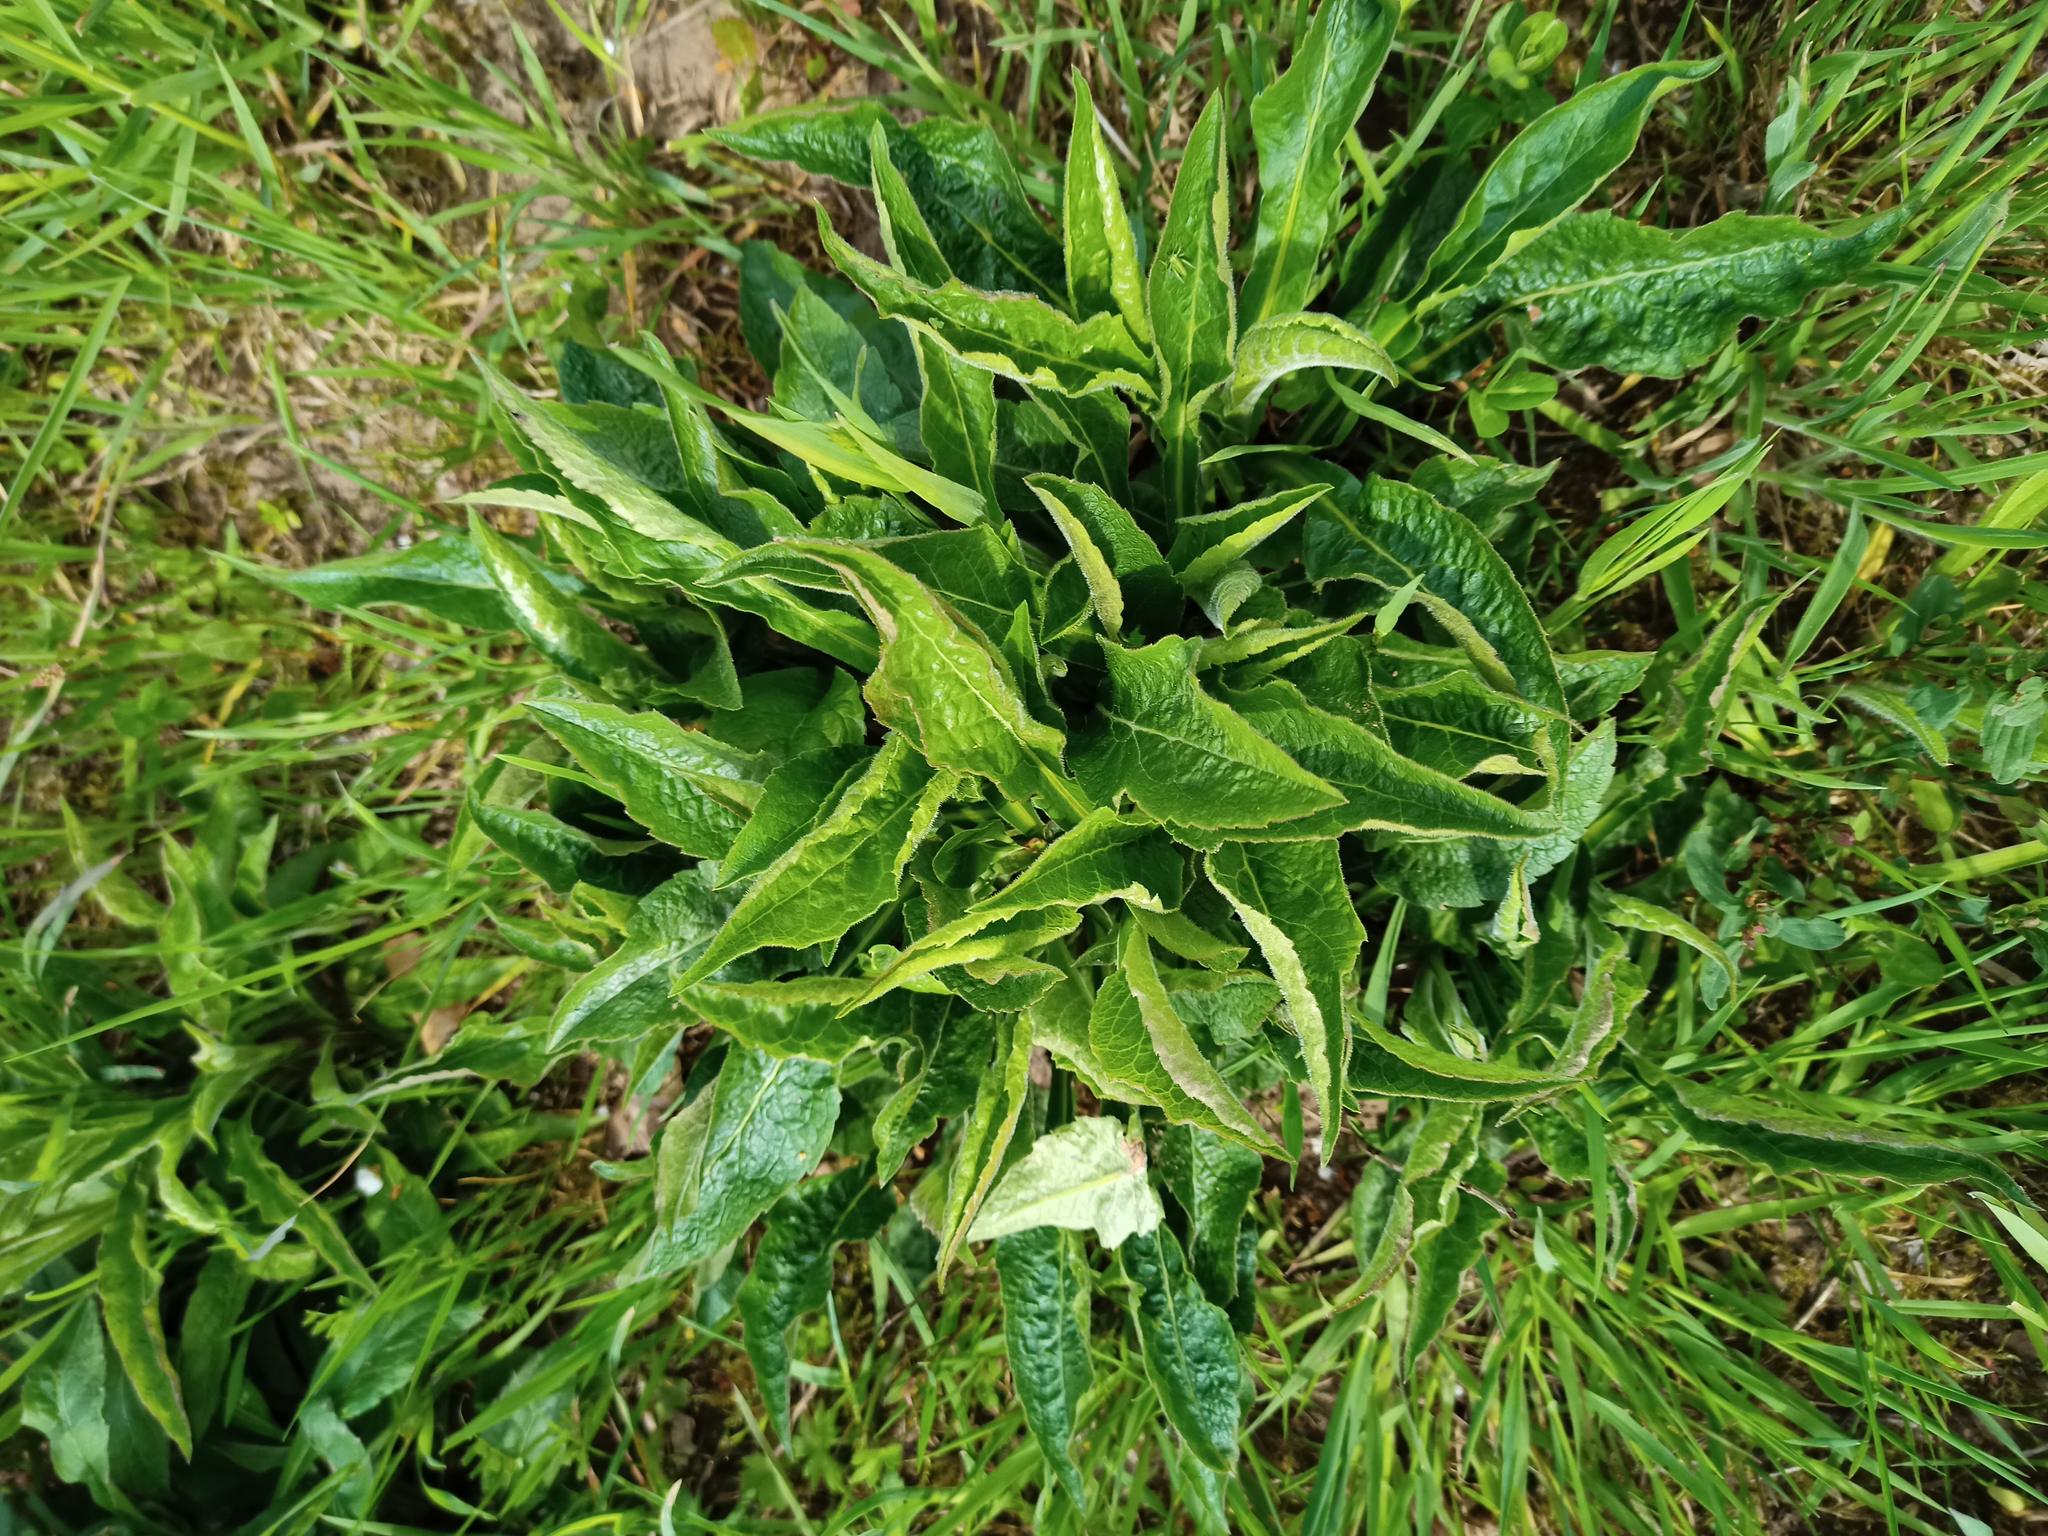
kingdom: Plantae
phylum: Tracheophyta
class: Magnoliopsida
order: Brassicales
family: Brassicaceae
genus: Bunias
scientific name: Bunias orientalis
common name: Warty-cabbage
